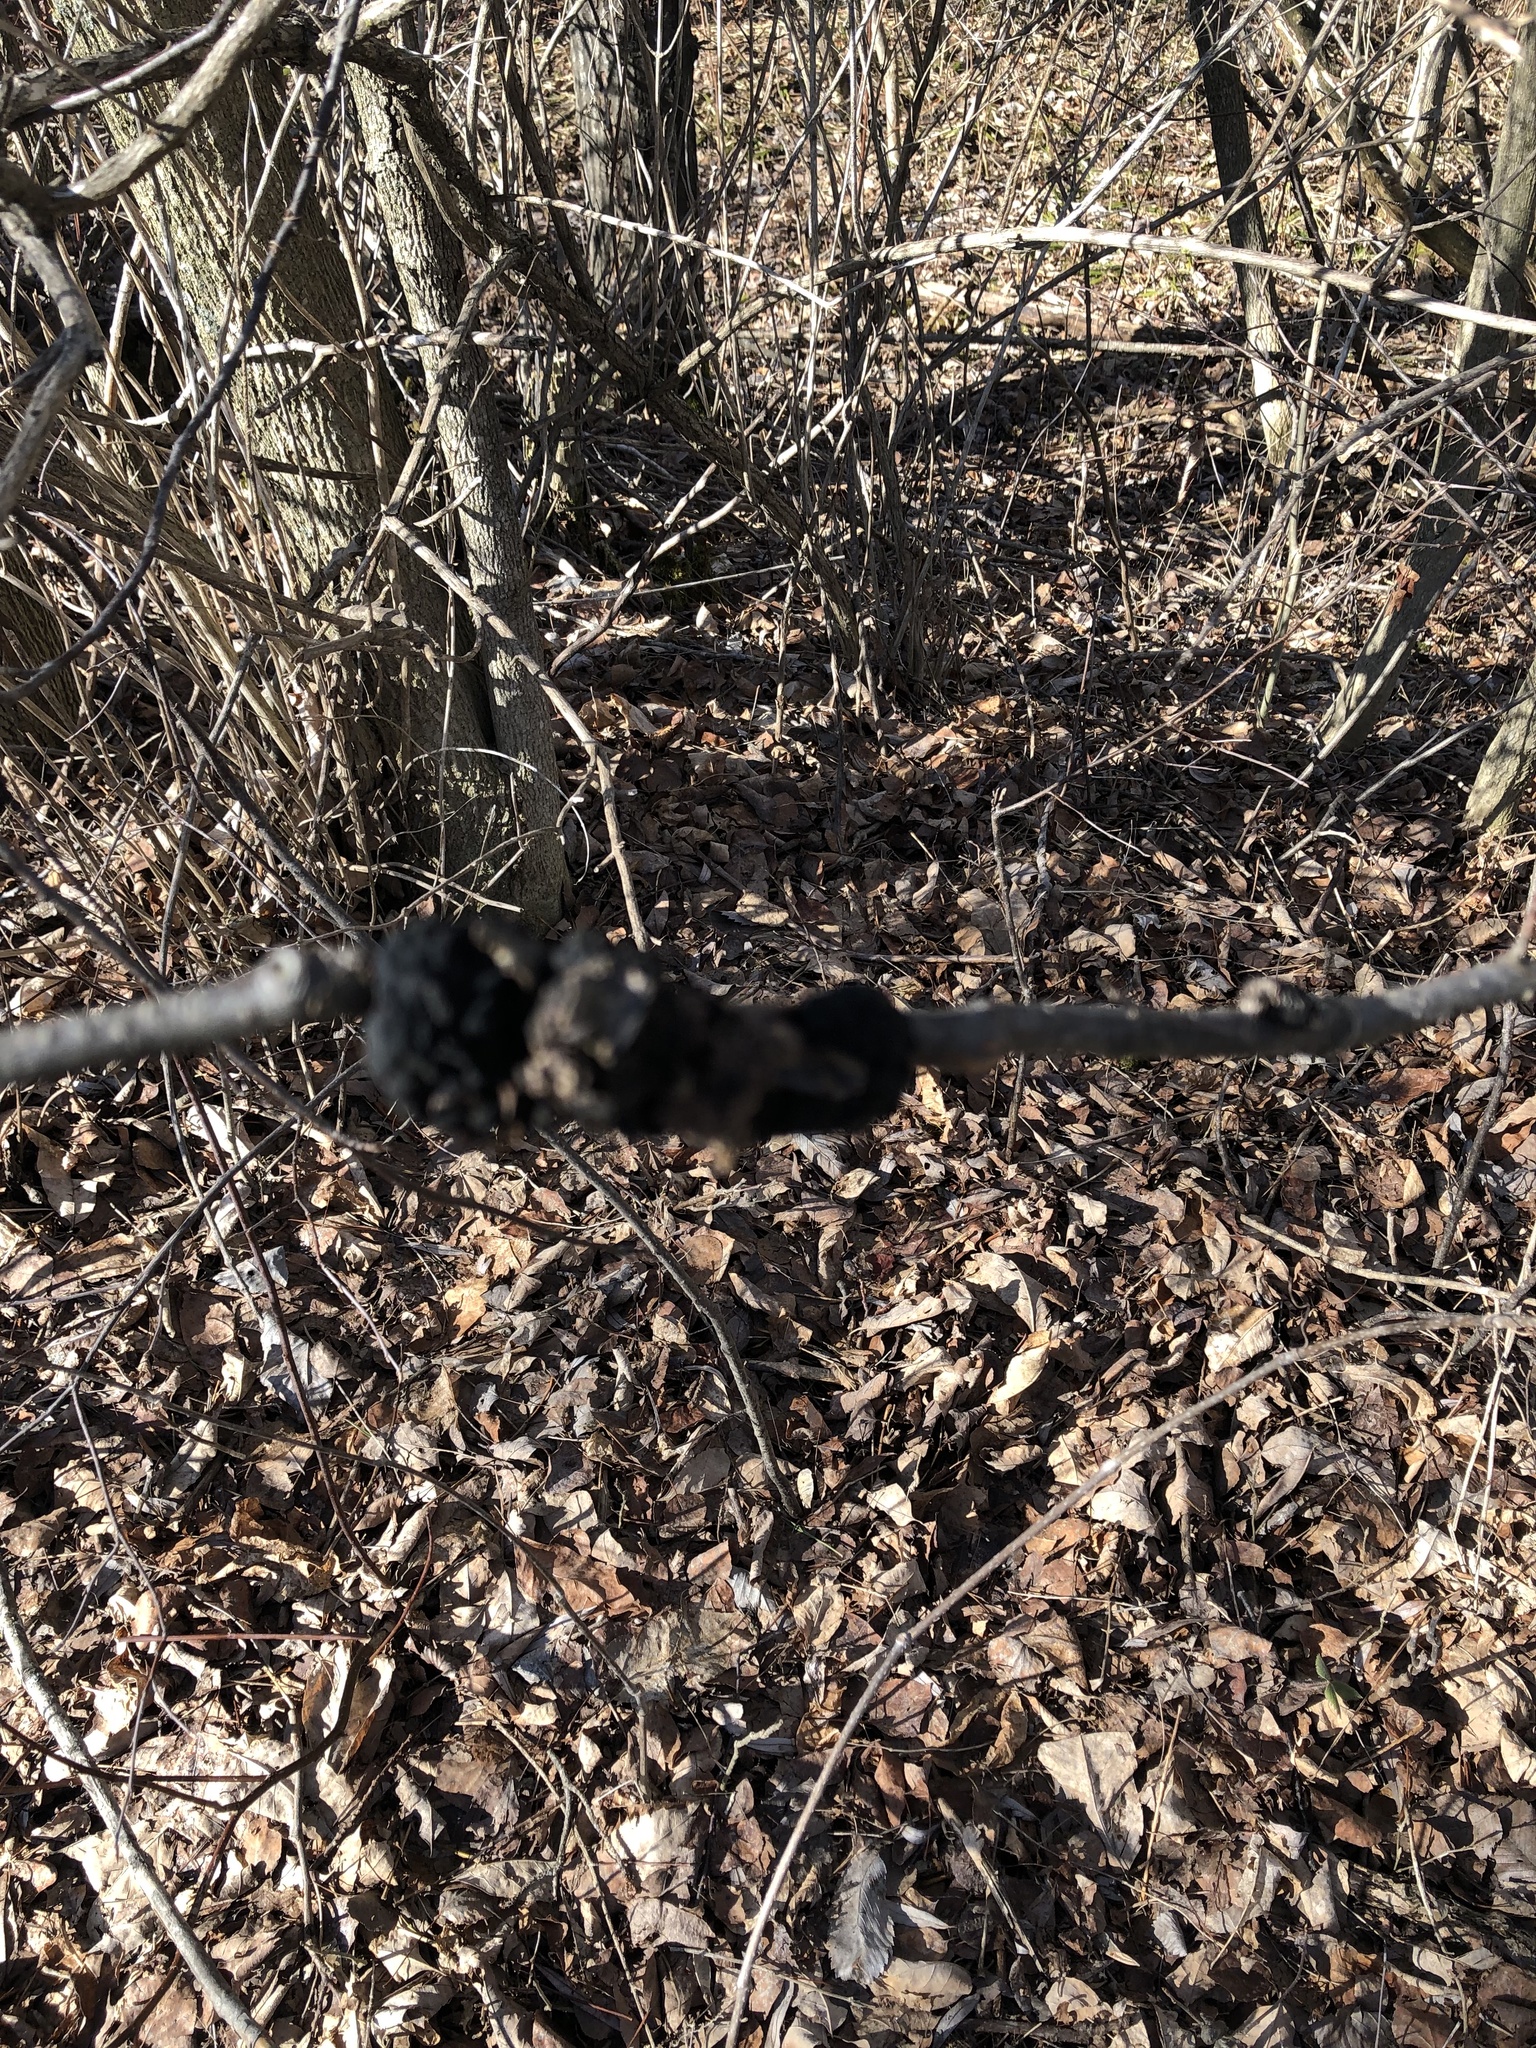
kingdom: Fungi
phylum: Ascomycota
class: Dothideomycetes
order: Venturiales
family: Venturiaceae
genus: Apiosporina
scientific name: Apiosporina morbosa
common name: Black knot
